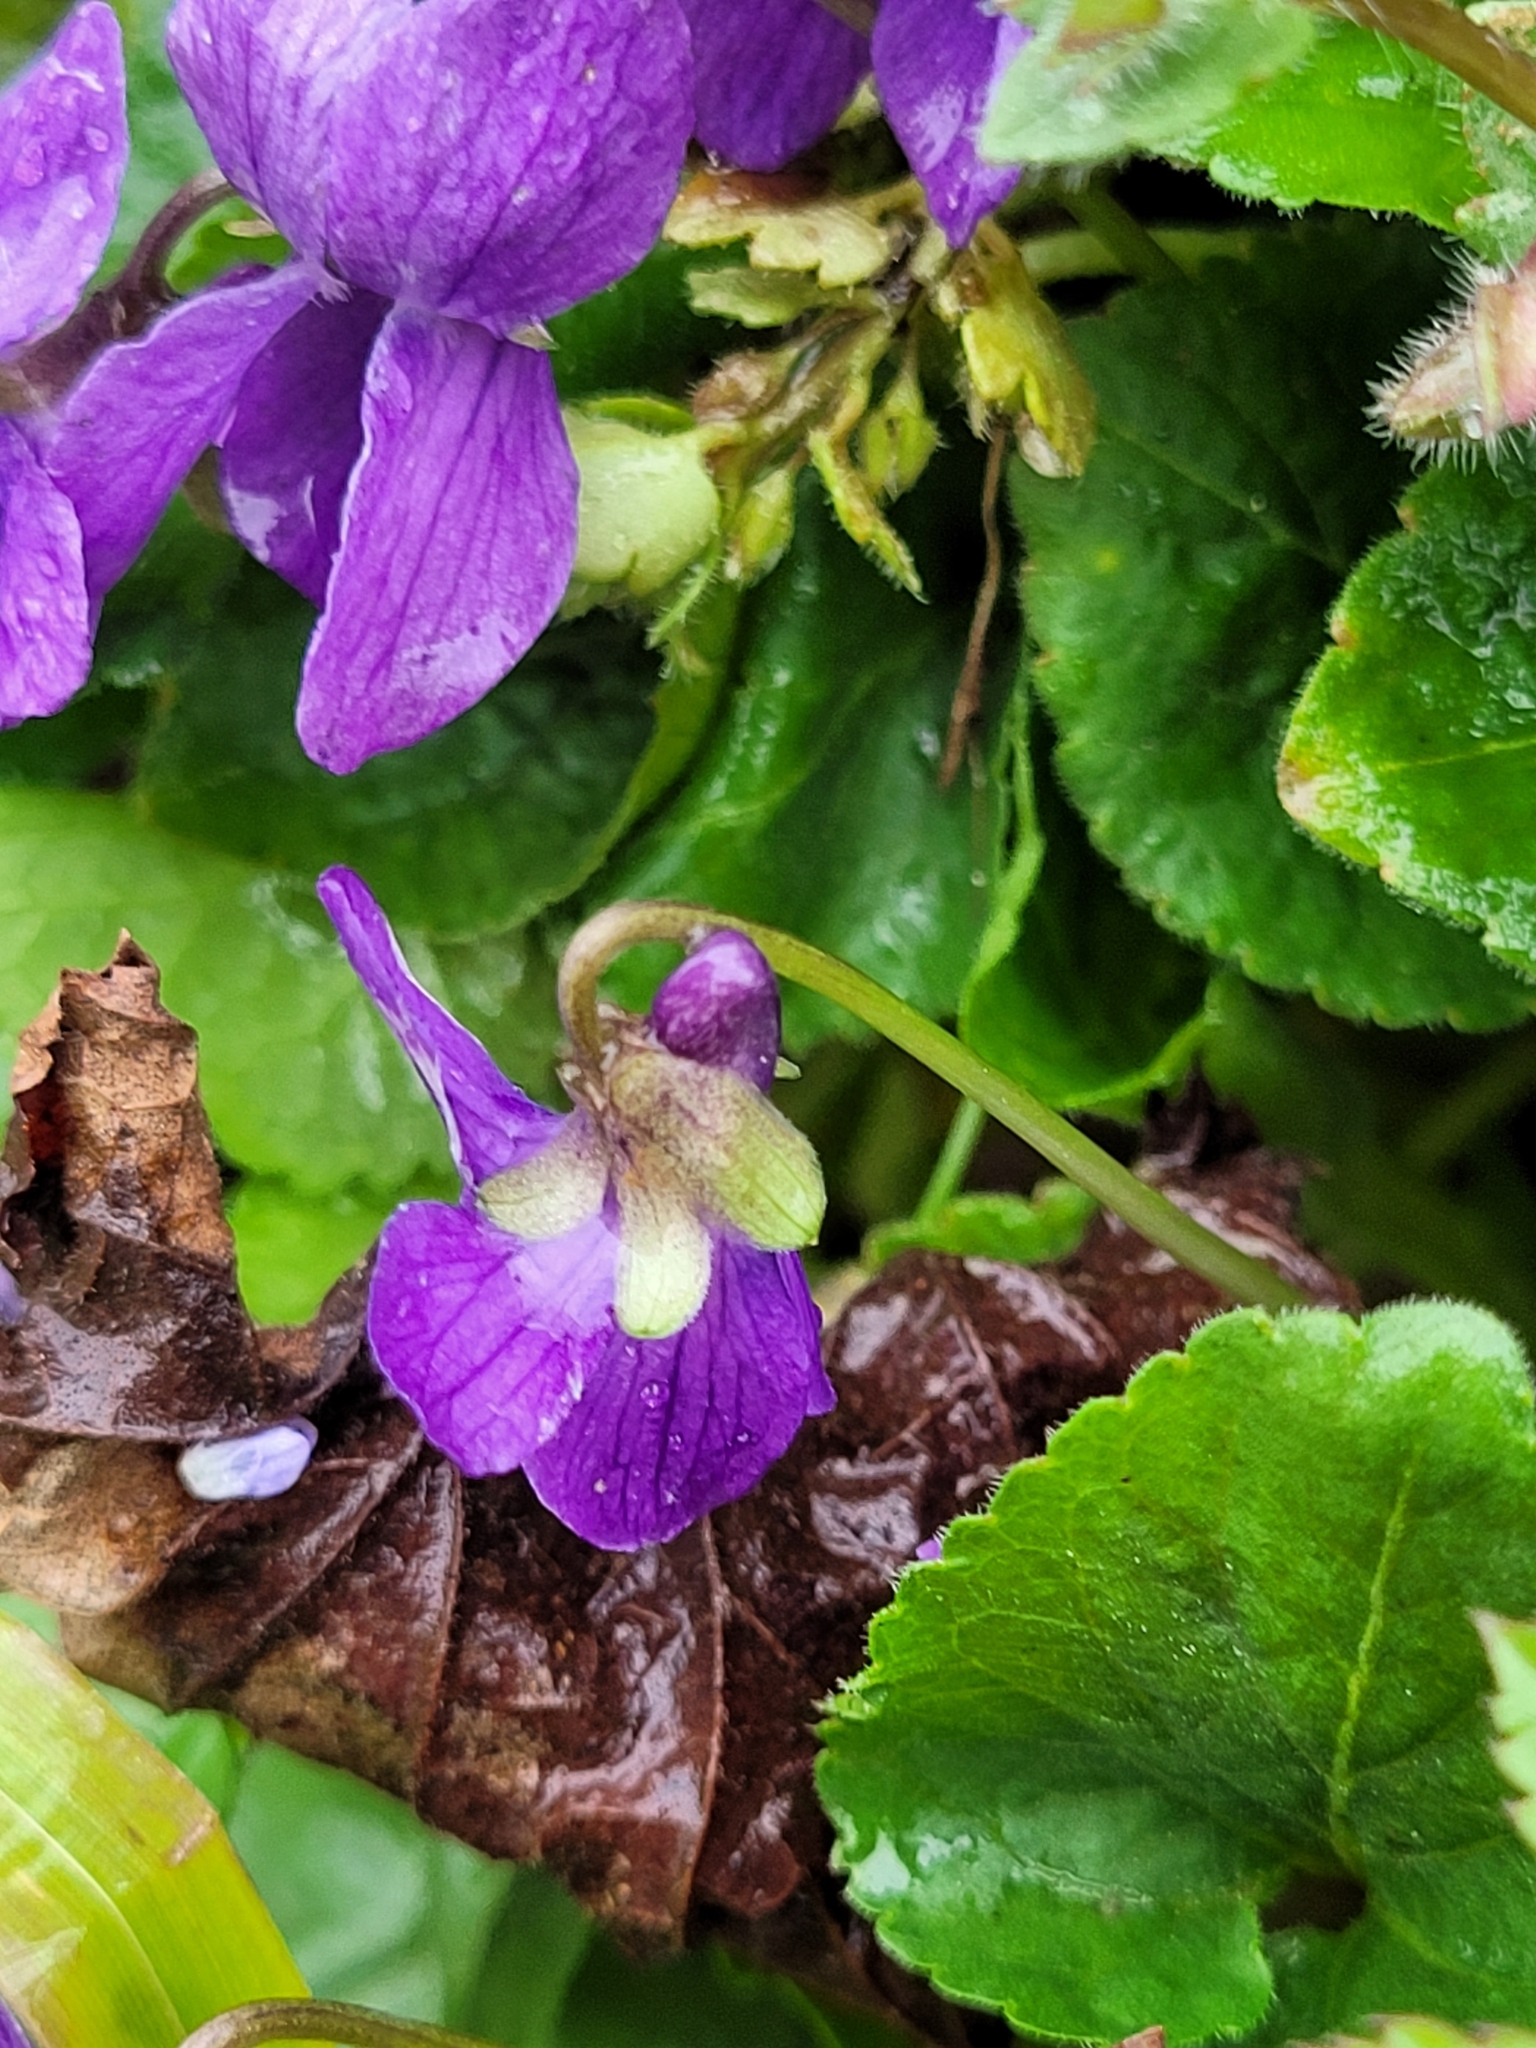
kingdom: Plantae
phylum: Tracheophyta
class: Magnoliopsida
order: Malpighiales
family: Violaceae
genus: Viola
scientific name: Viola odorata
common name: Sweet violet
